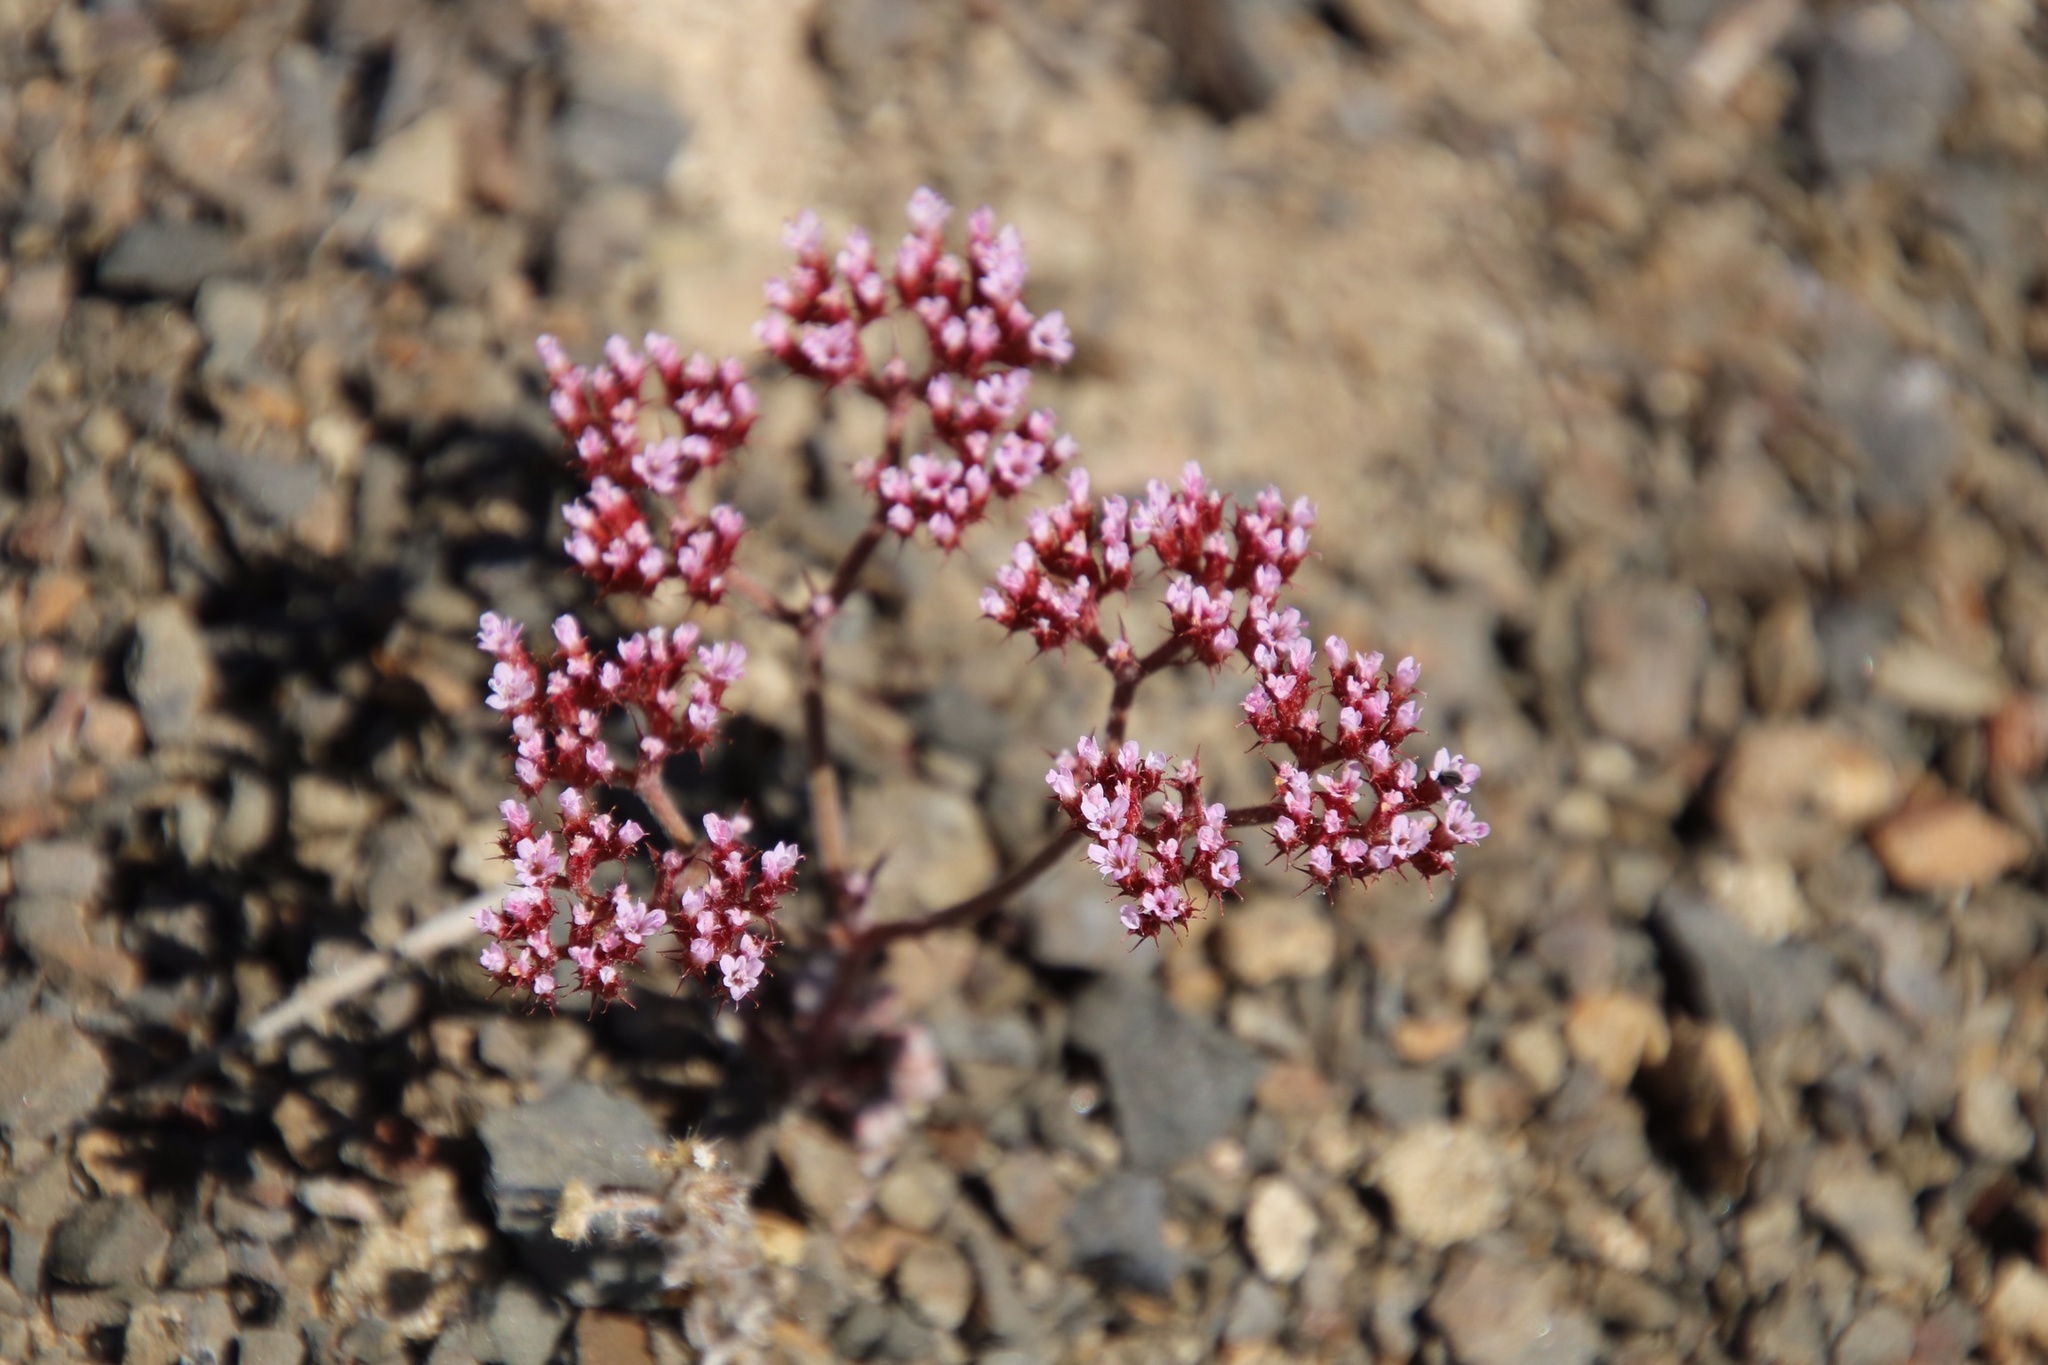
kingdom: Plantae
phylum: Tracheophyta
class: Magnoliopsida
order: Caryophyllales
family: Polygonaceae
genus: Chorizanthe
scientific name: Chorizanthe staticoides
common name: Turkish rugging
